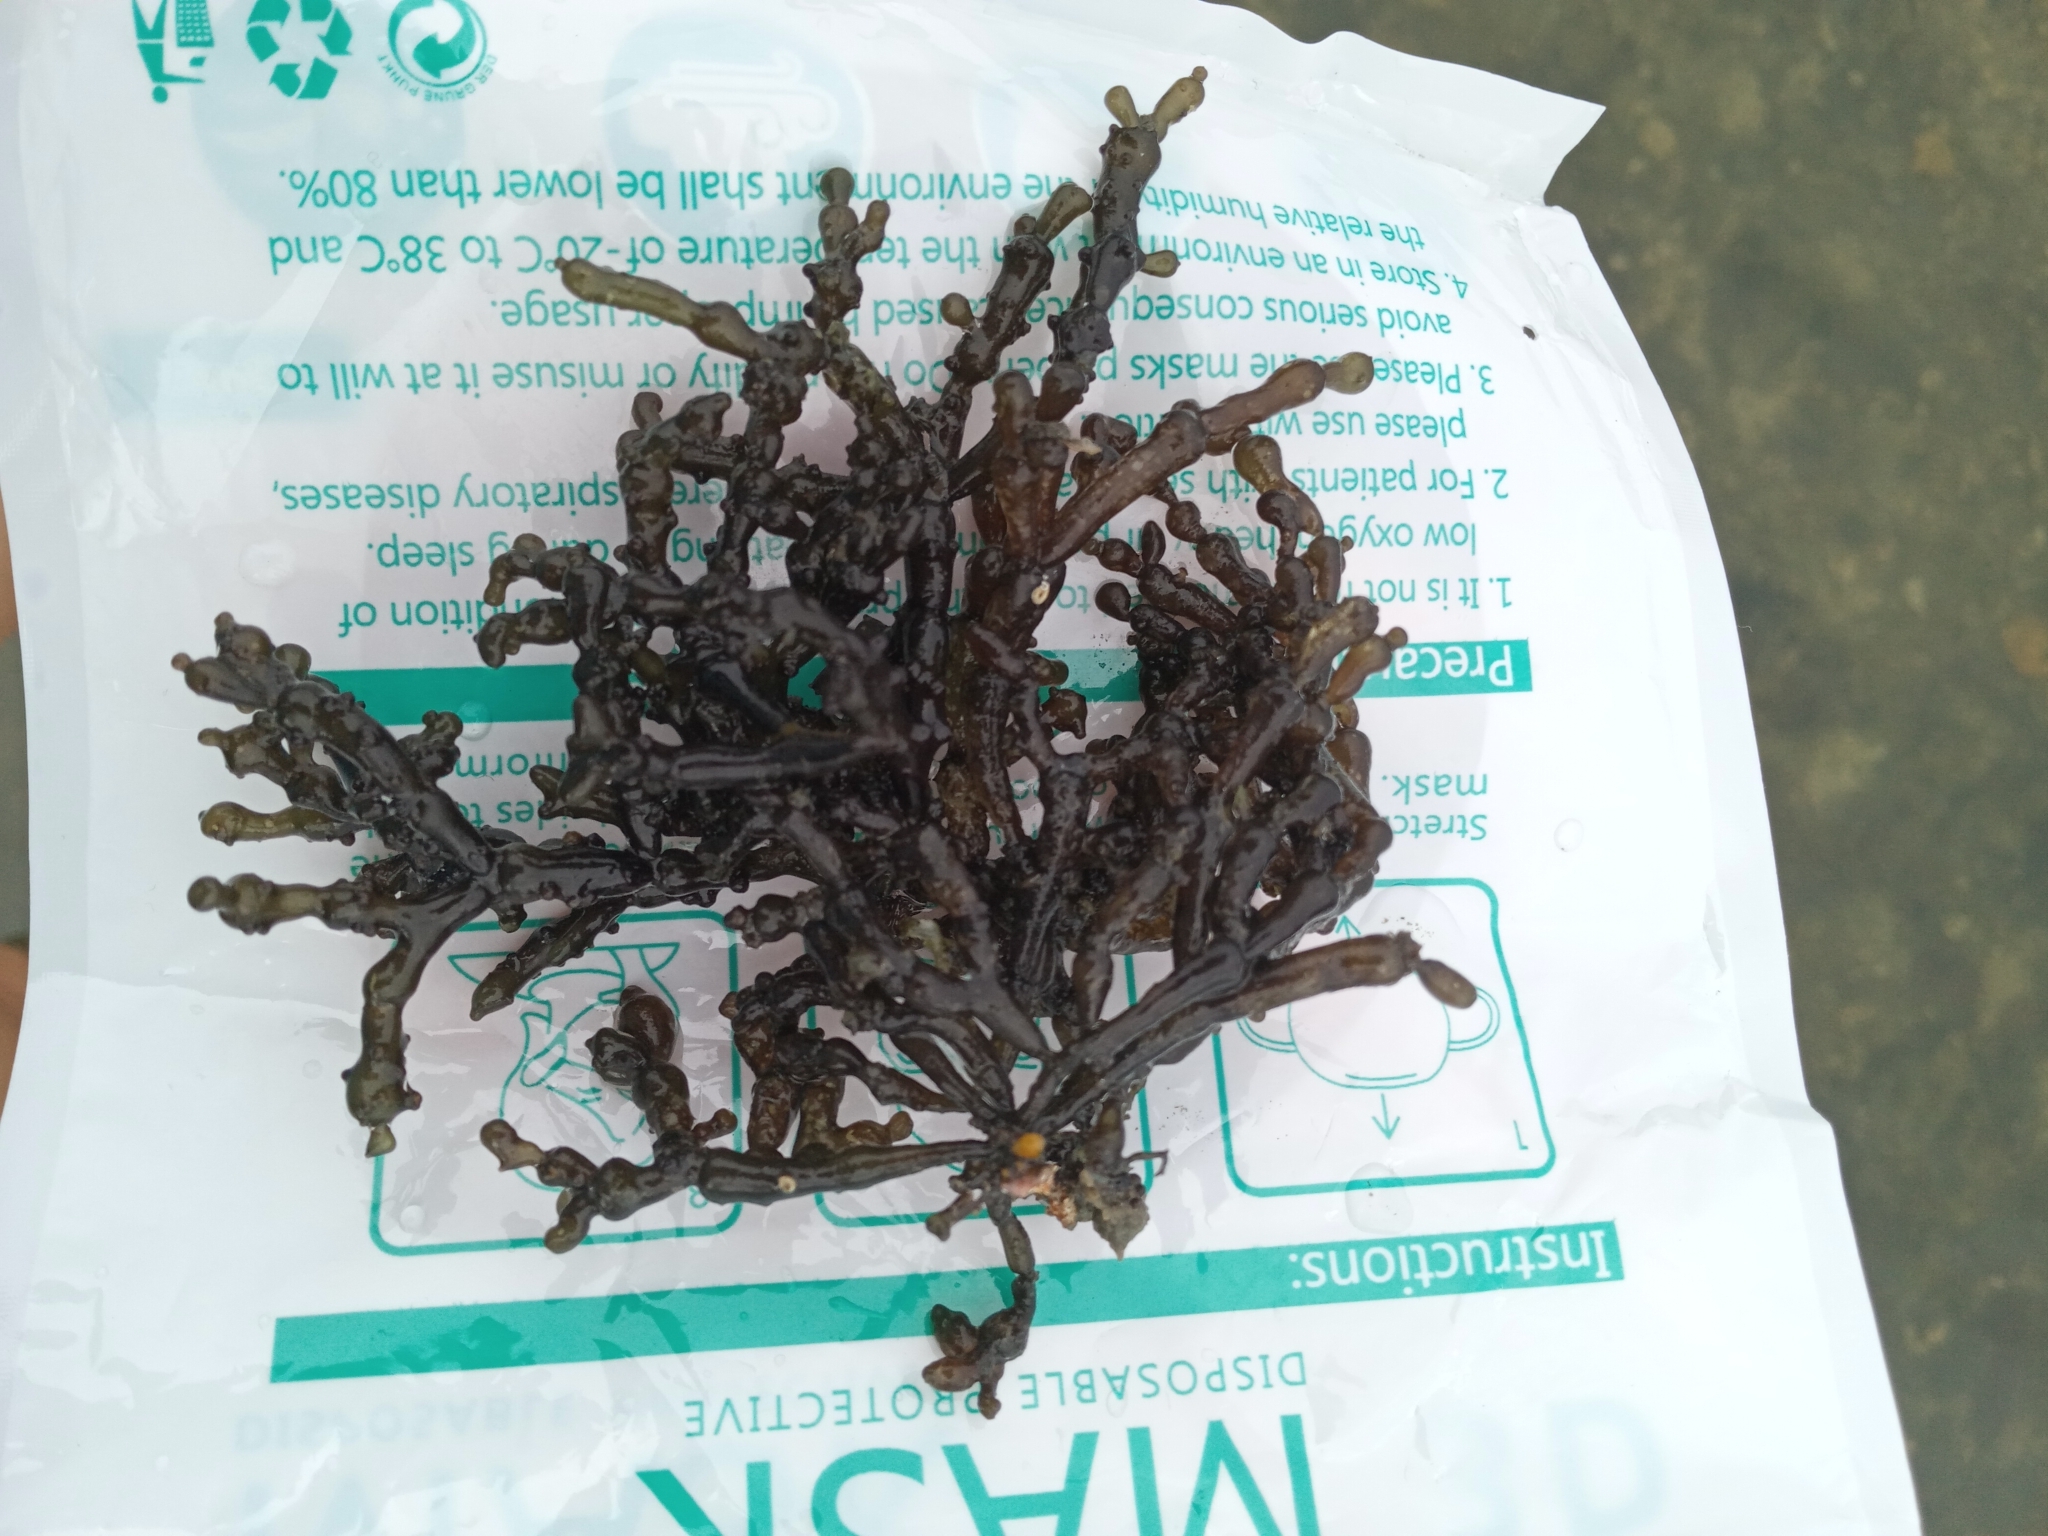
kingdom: Plantae
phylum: Rhodophyta
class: Florideophyceae
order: Gracilariales
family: Gracilariaceae
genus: Gracilaria
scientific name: Gracilaria salicornia
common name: Red algae
